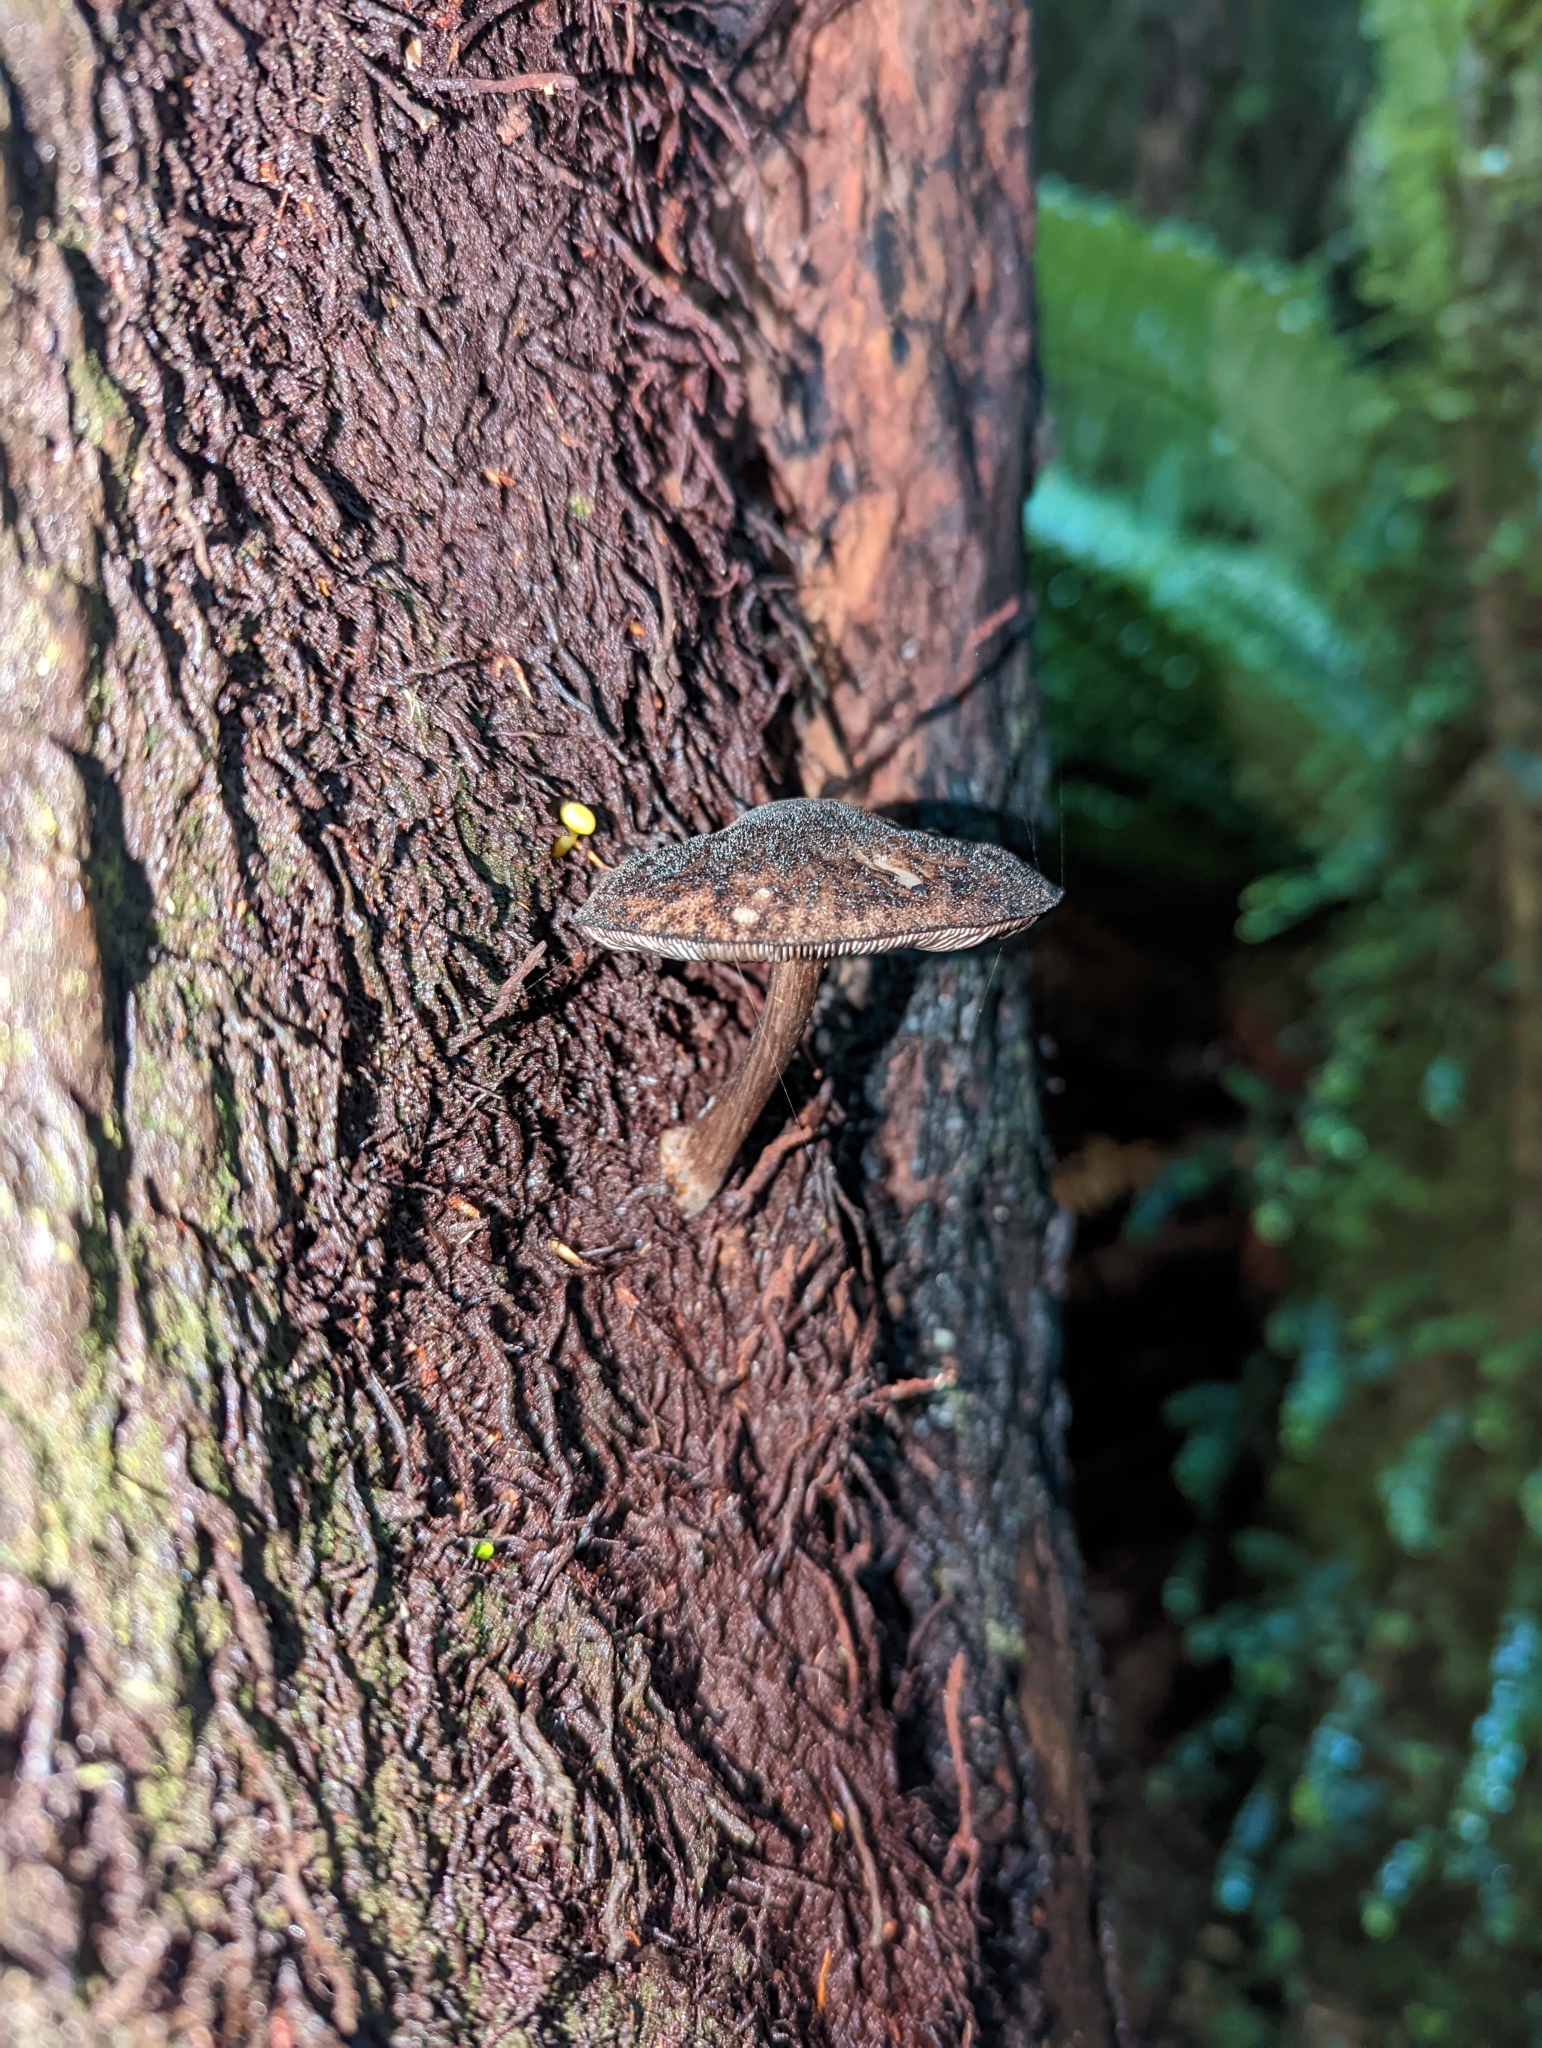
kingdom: Fungi
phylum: Basidiomycota
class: Agaricomycetes
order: Agaricales
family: Pluteaceae
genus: Pluteus
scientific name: Pluteus readiarum
